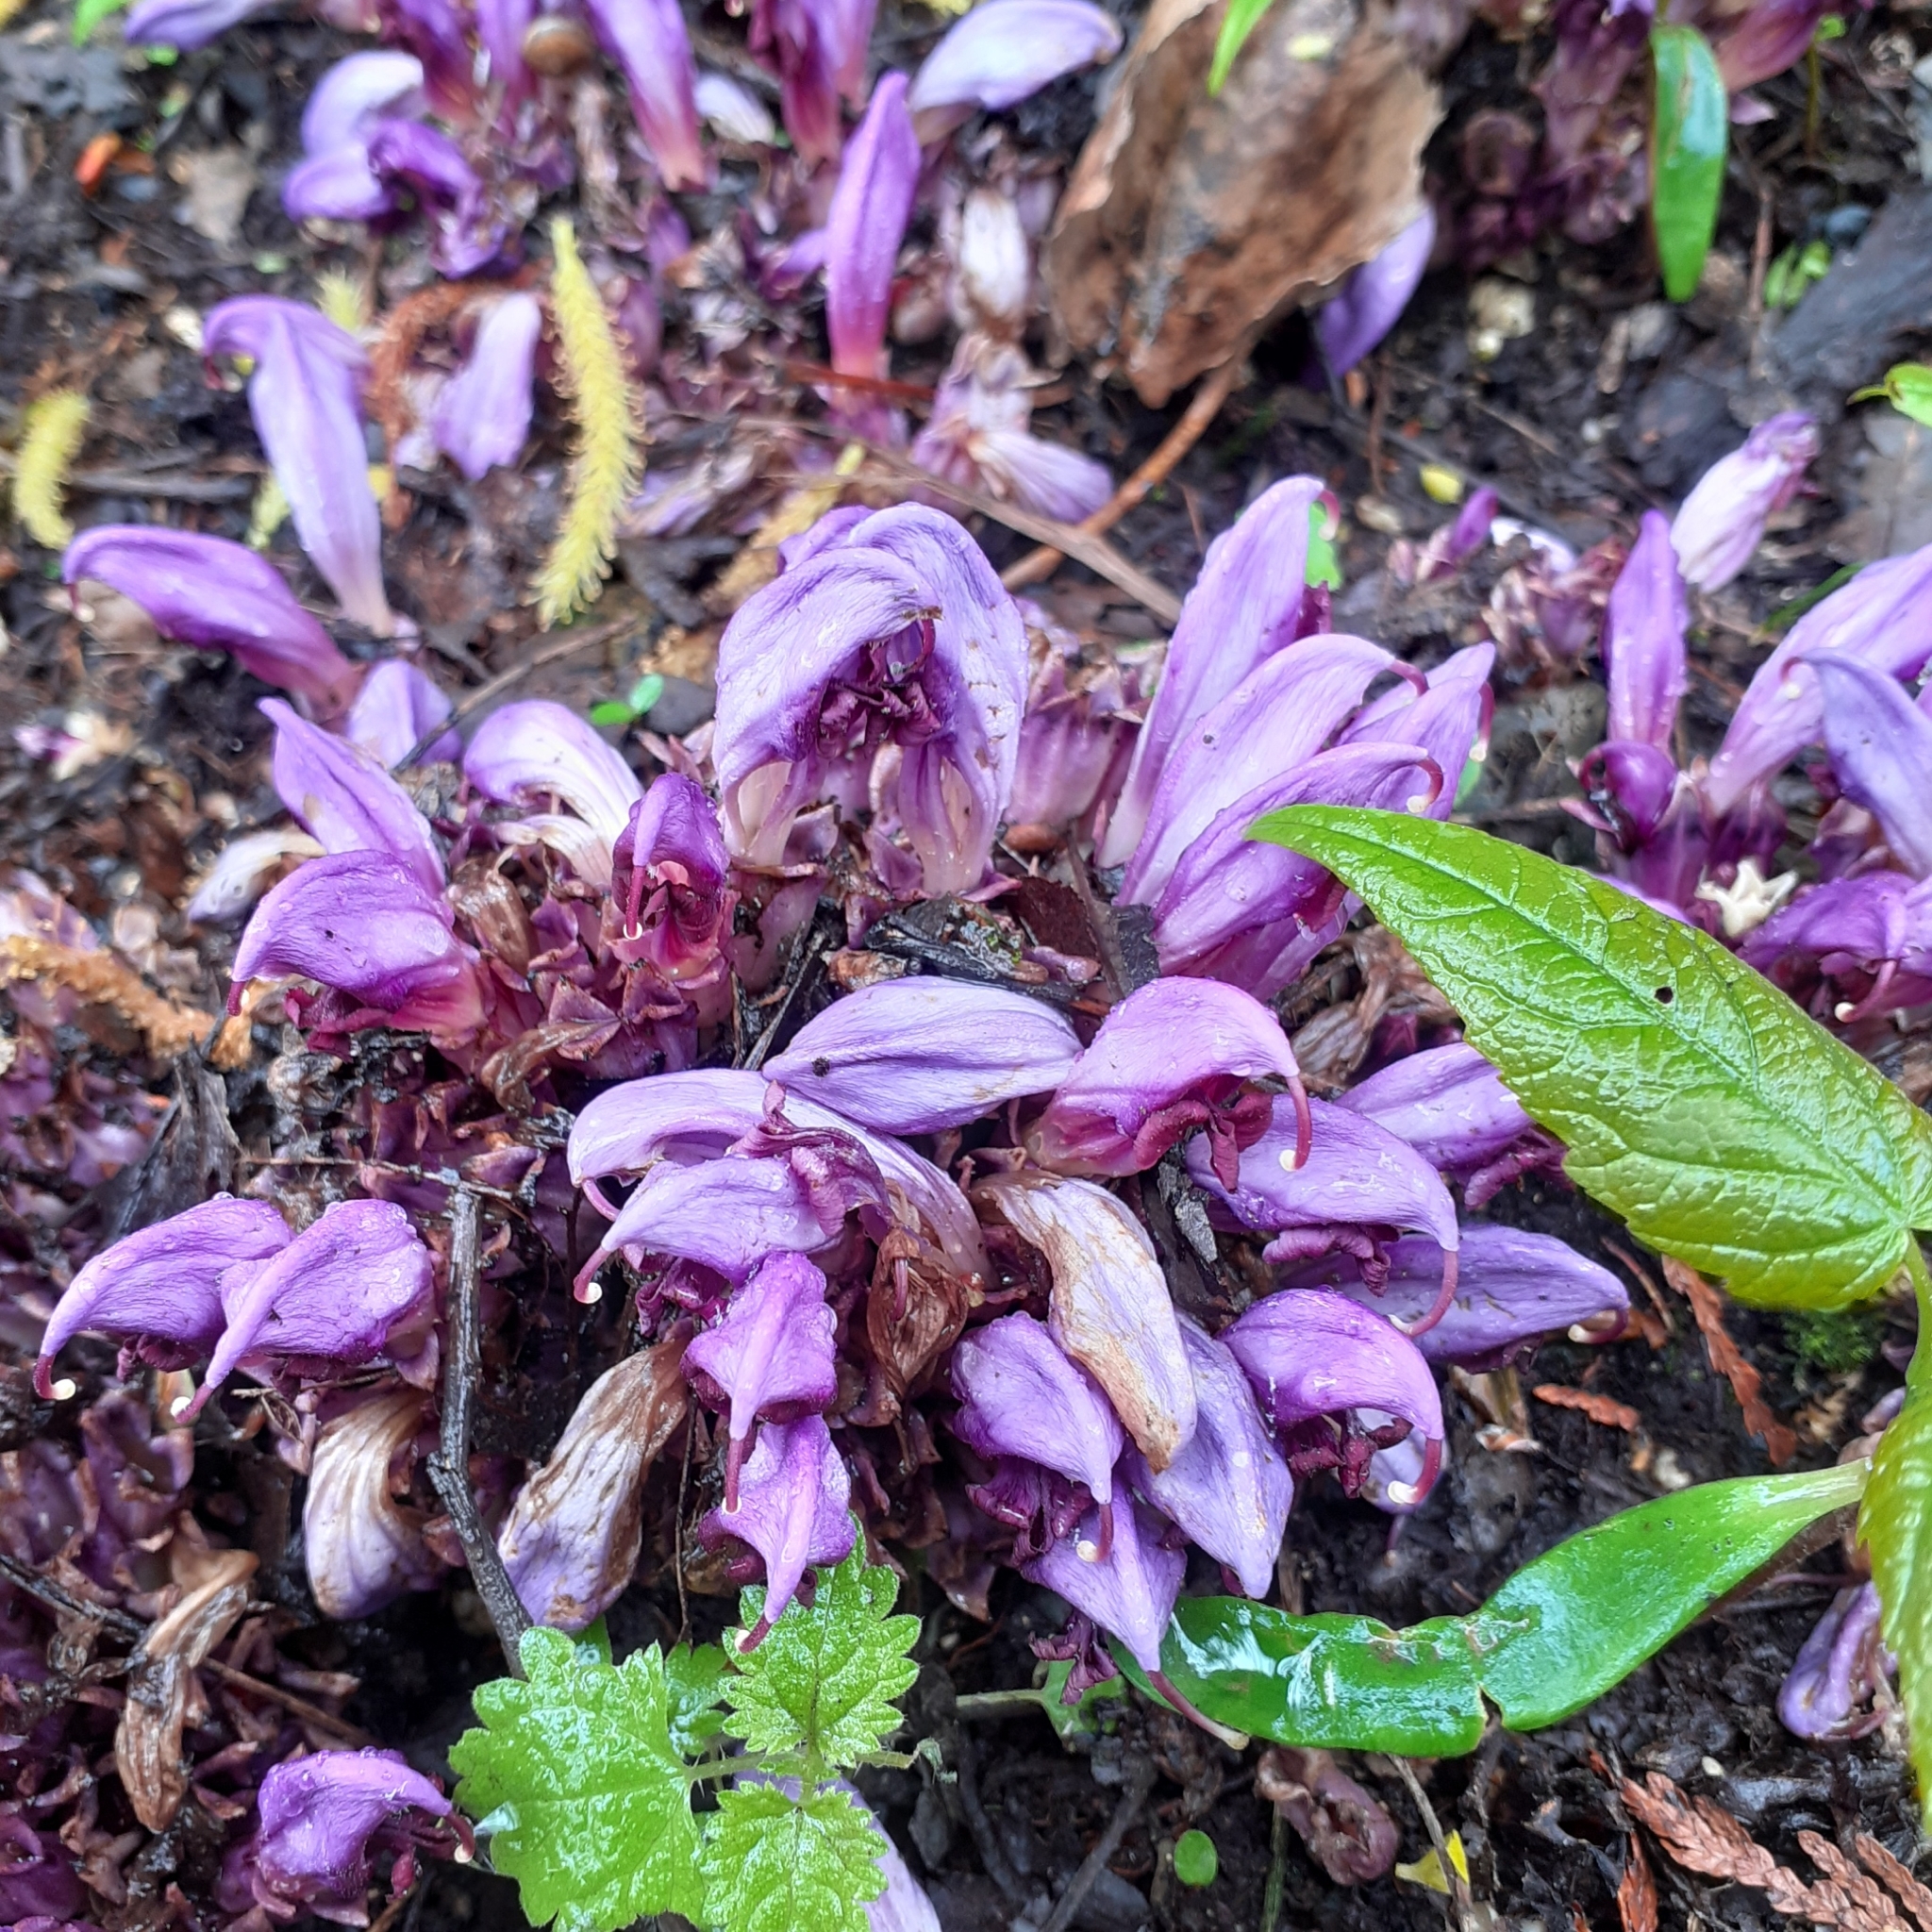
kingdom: Plantae
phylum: Tracheophyta
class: Magnoliopsida
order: Lamiales
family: Orobanchaceae
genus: Lathraea
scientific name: Lathraea clandestina
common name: Purple toothwort
